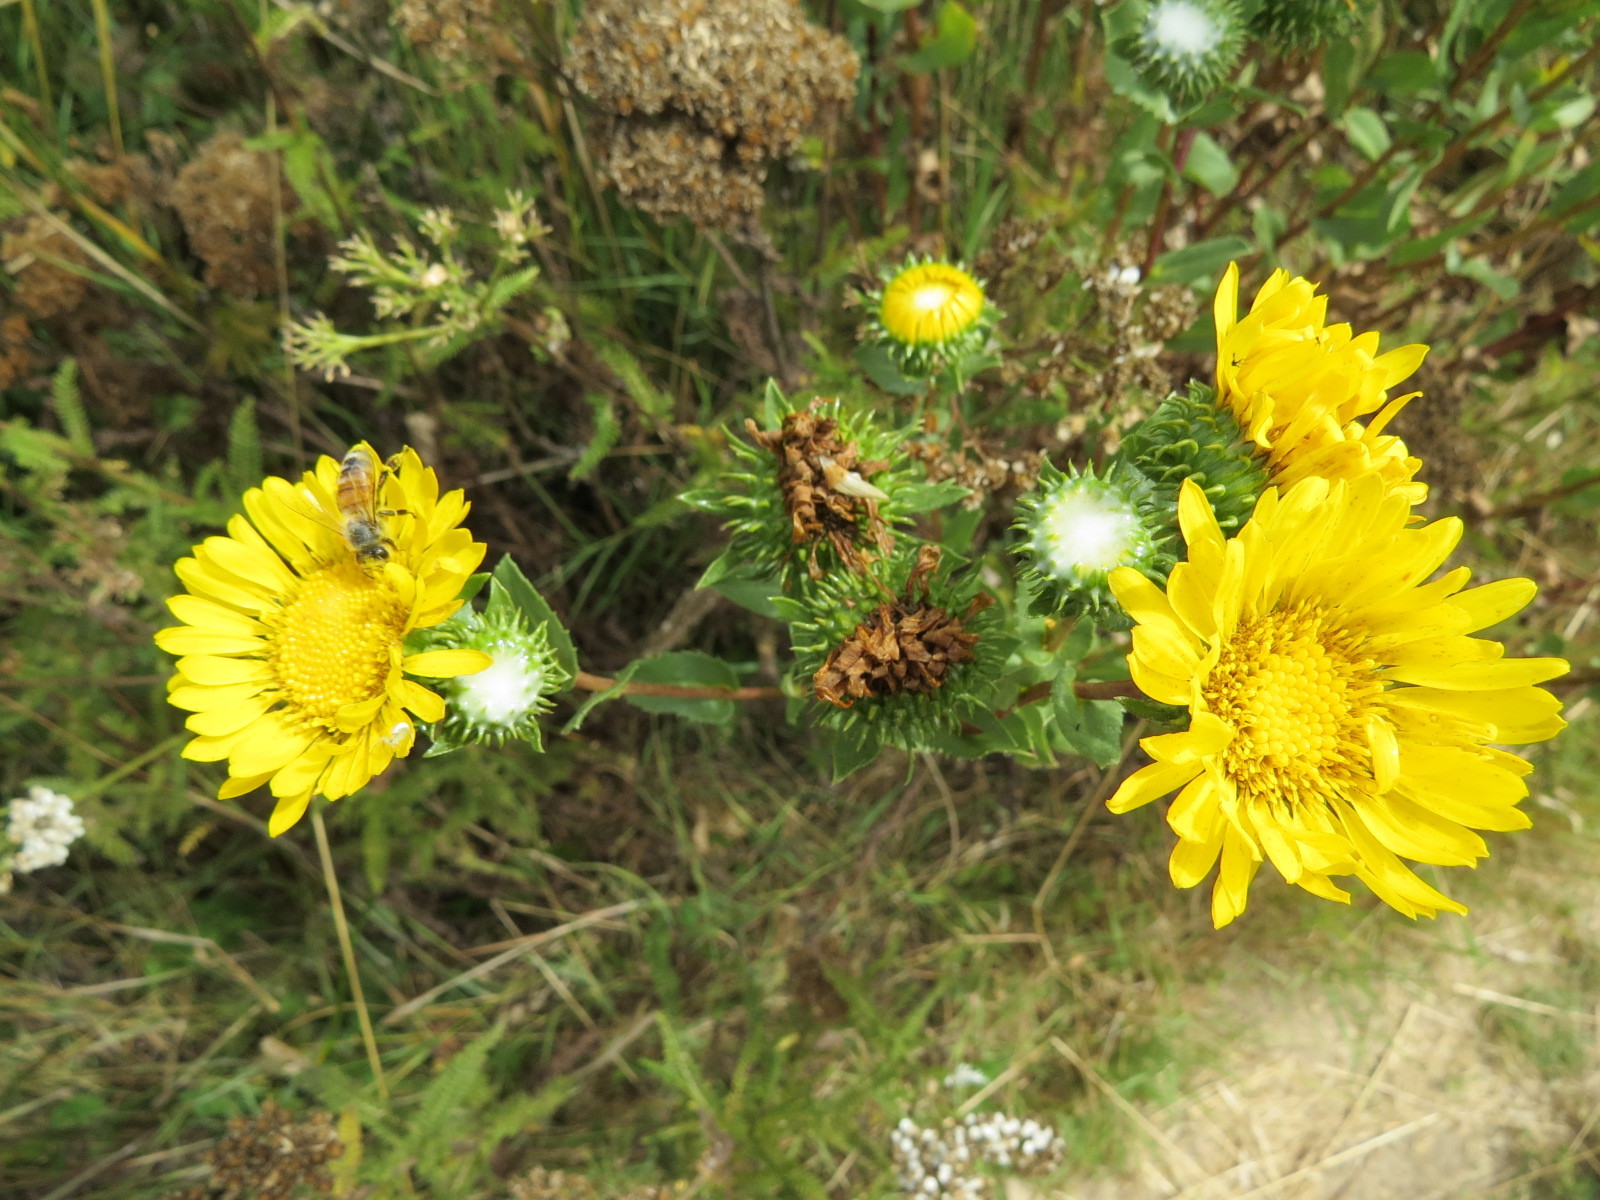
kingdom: Animalia
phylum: Arthropoda
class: Insecta
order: Hymenoptera
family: Apidae
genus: Apis
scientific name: Apis mellifera
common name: Honey bee
